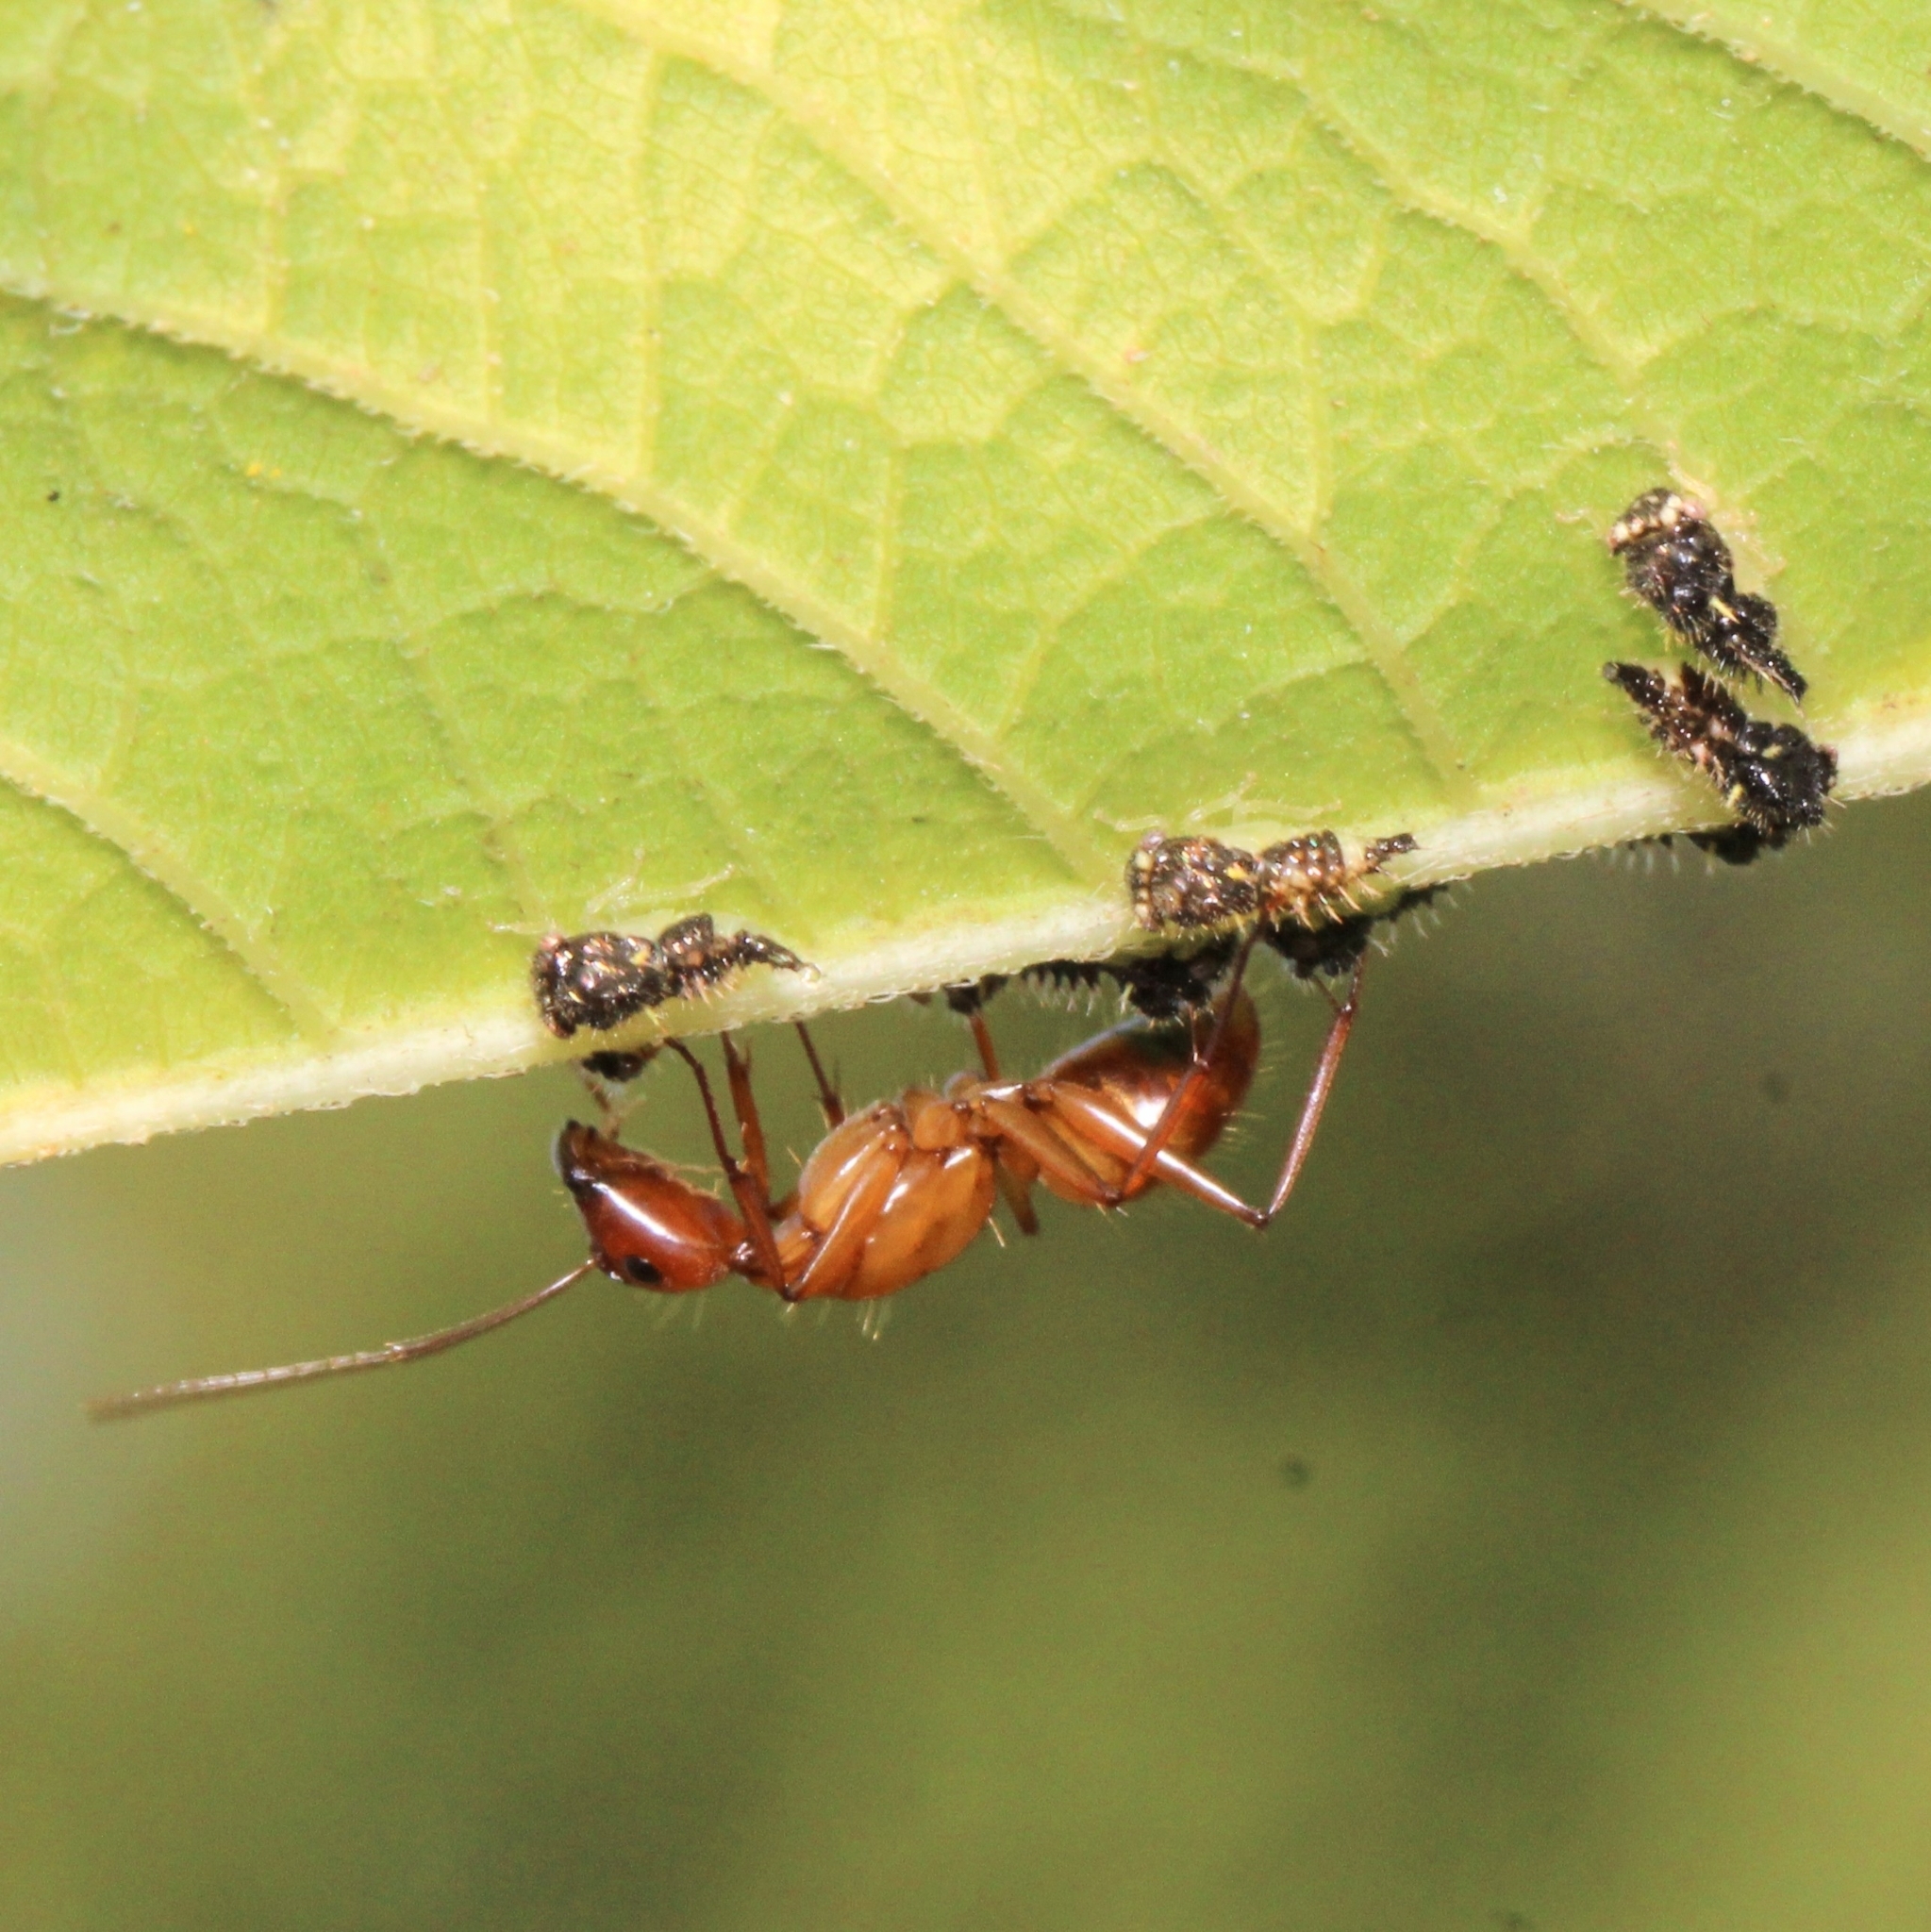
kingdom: Animalia
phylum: Arthropoda
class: Insecta
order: Hymenoptera
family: Formicidae
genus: Camponotus
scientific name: Camponotus castaneus
